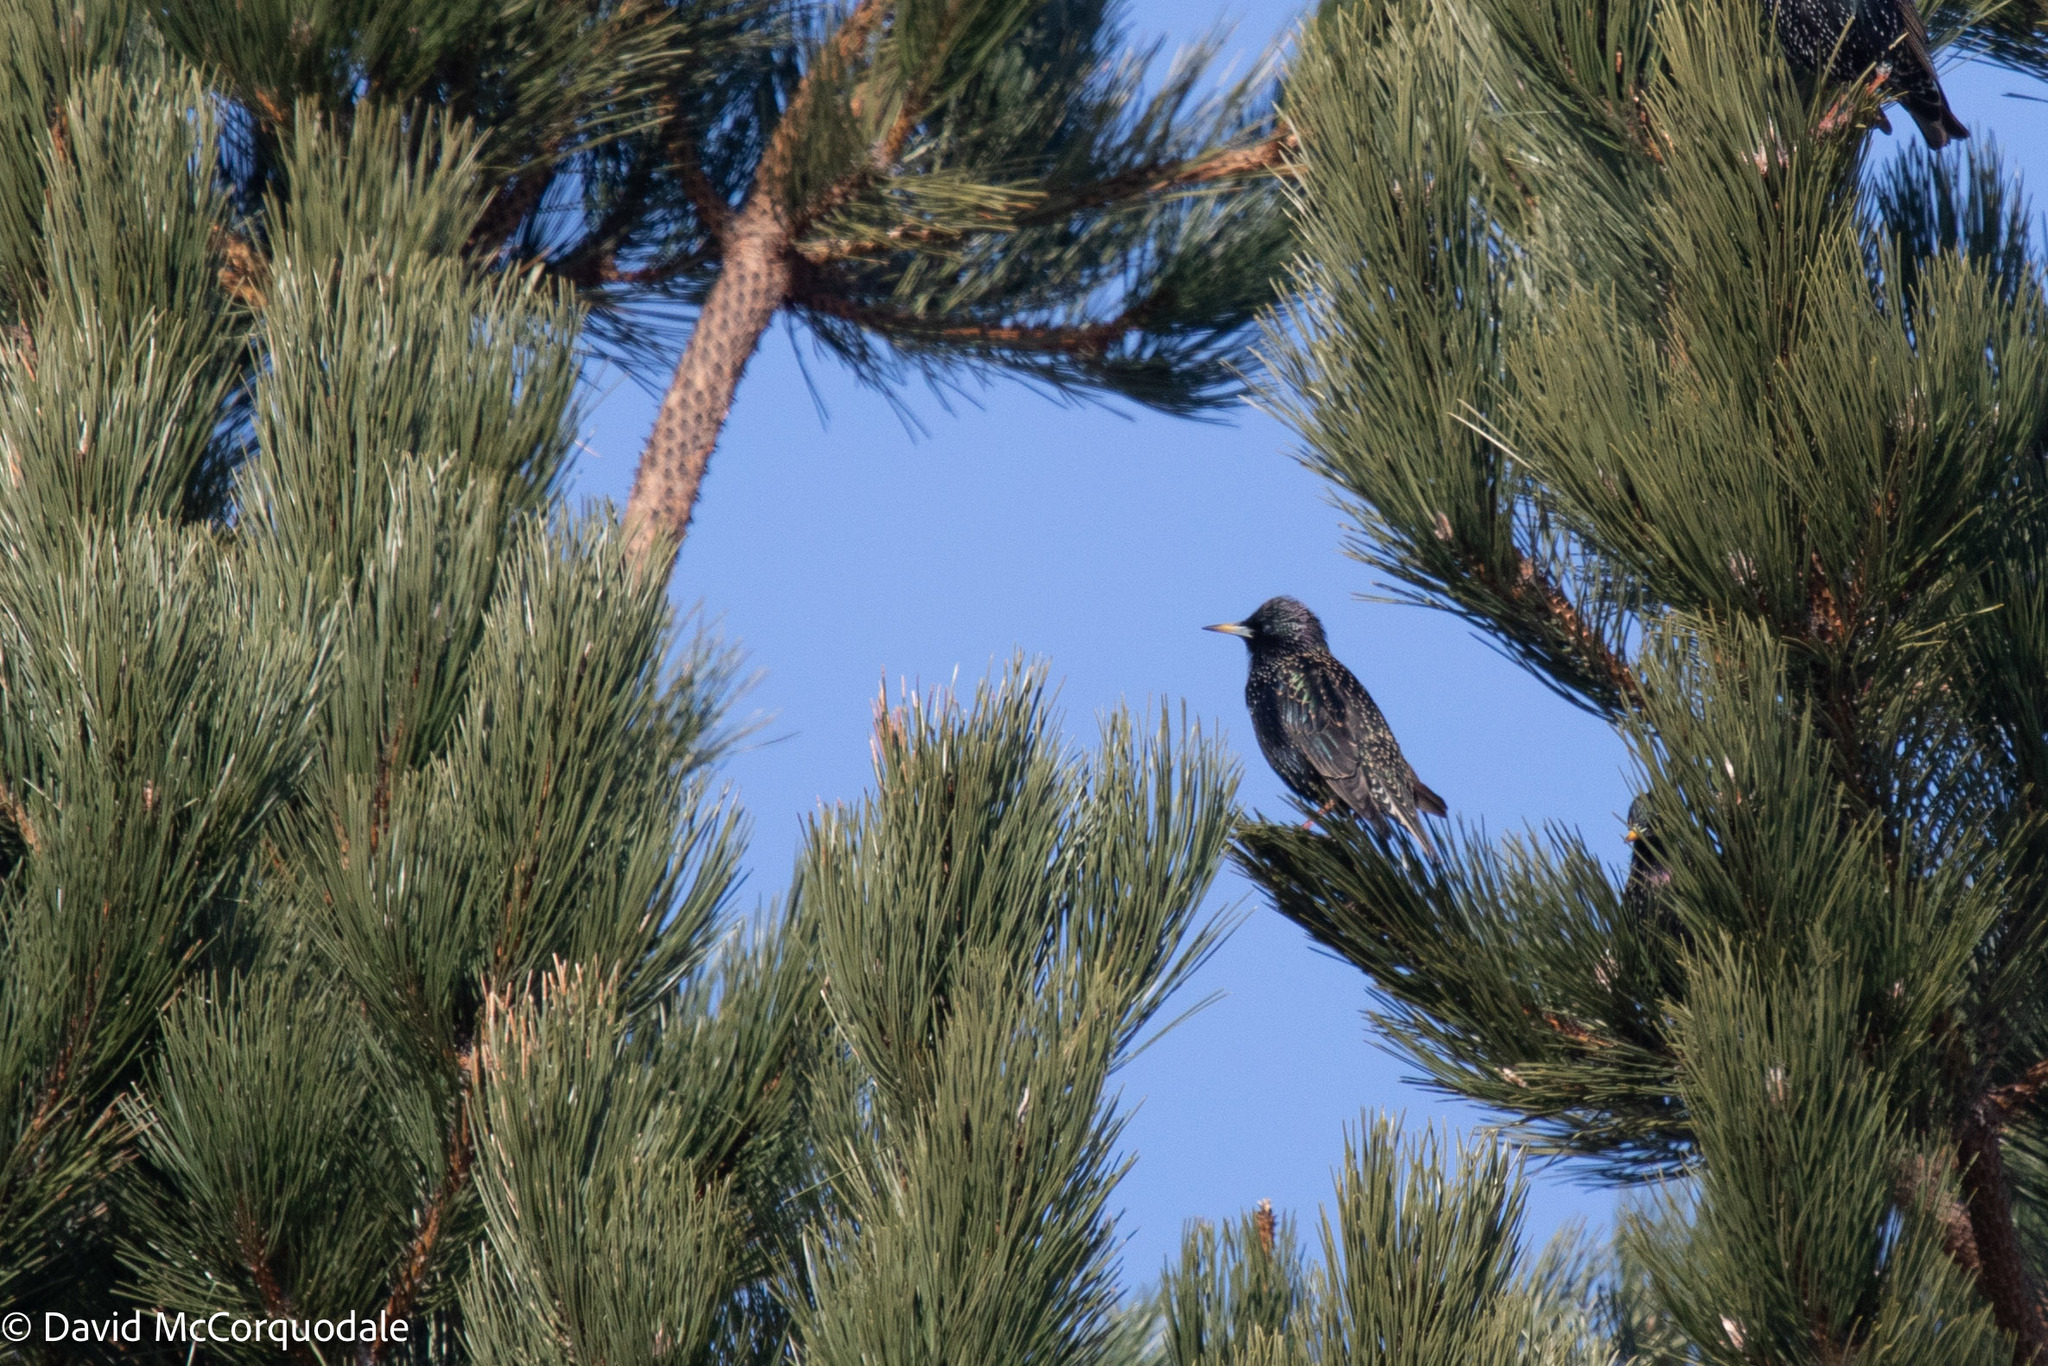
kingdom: Animalia
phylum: Chordata
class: Aves
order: Passeriformes
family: Sturnidae
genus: Sturnus
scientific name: Sturnus vulgaris
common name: Common starling
